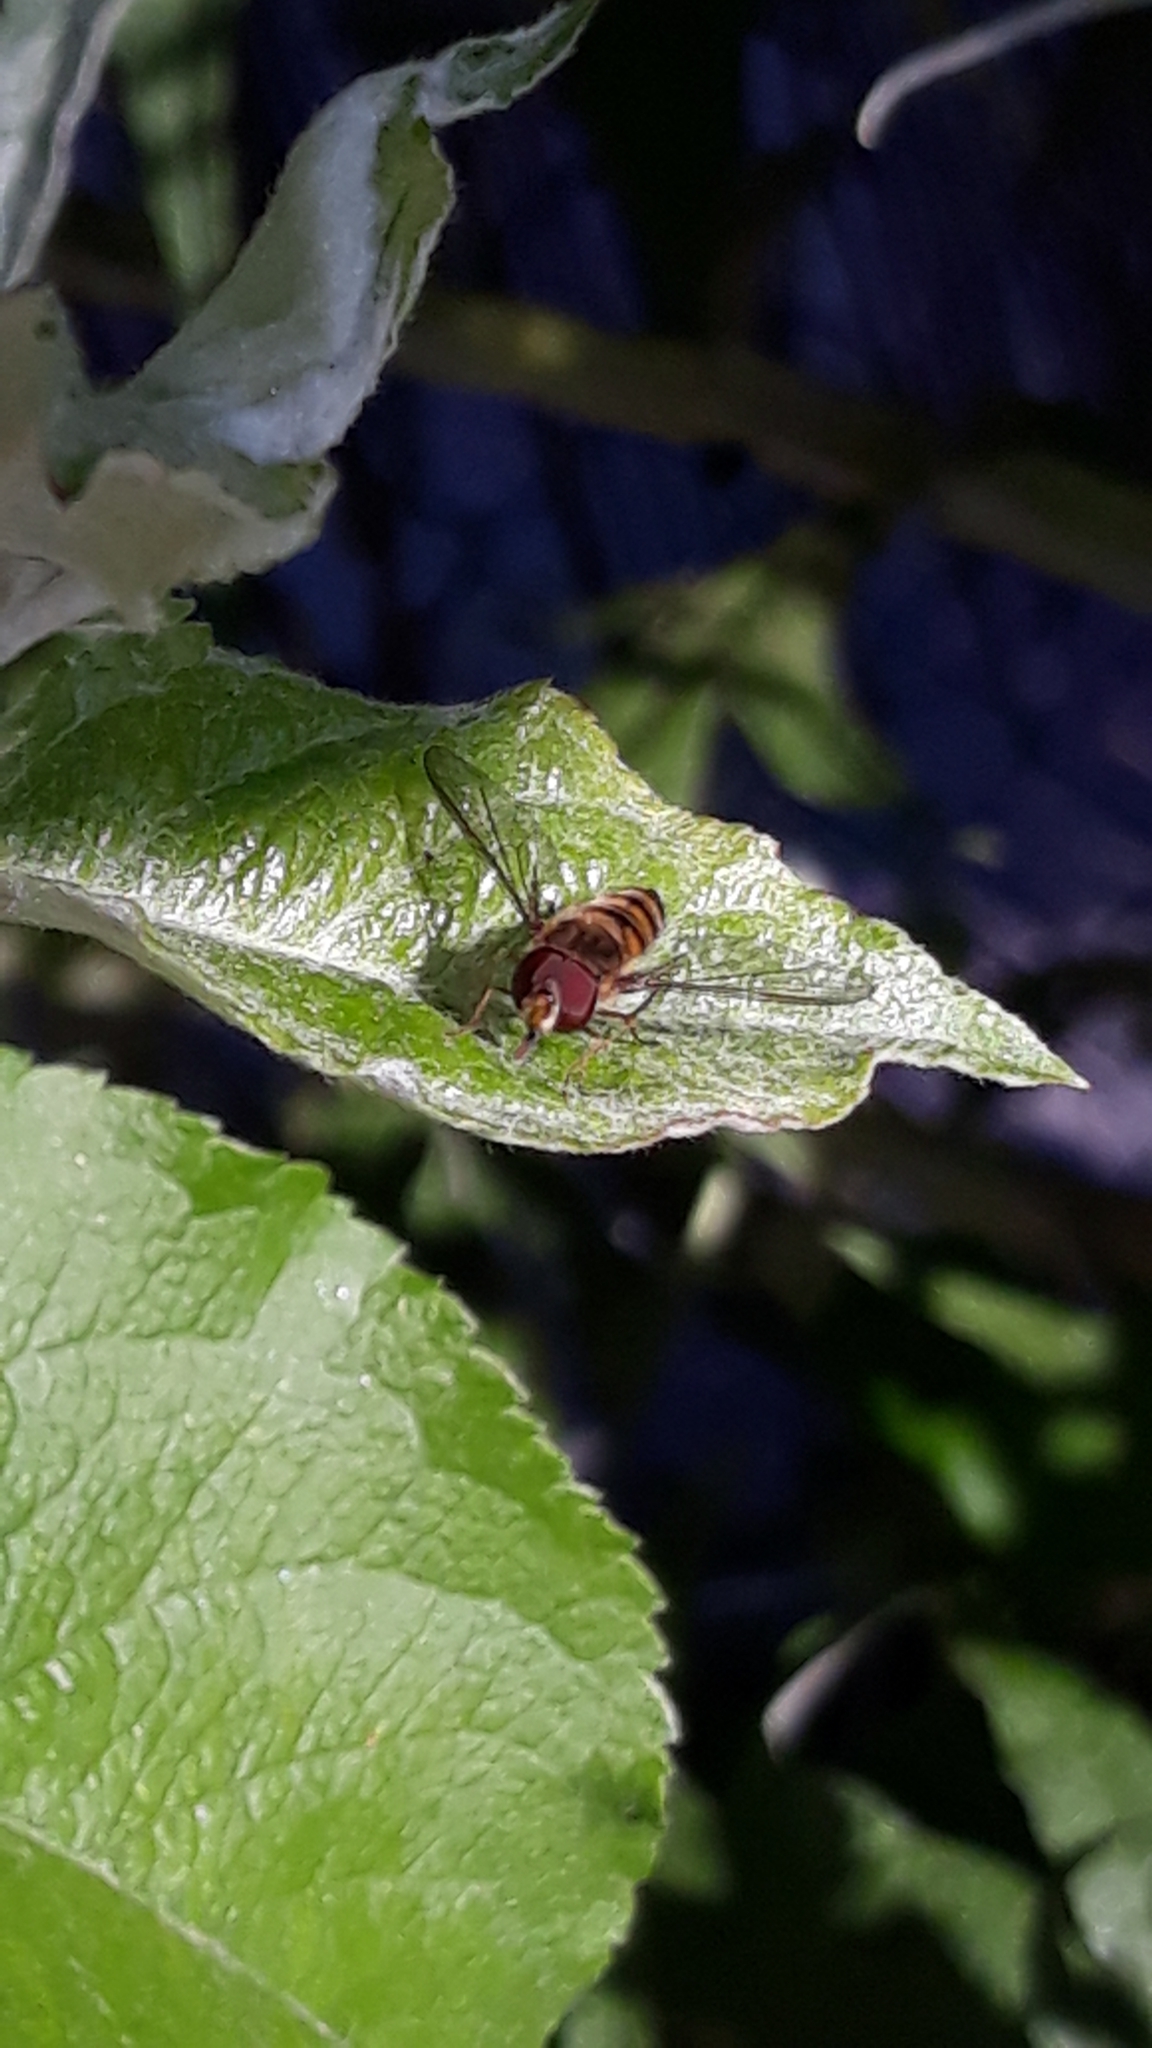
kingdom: Animalia
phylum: Arthropoda
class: Insecta
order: Diptera
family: Syrphidae
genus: Episyrphus
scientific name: Episyrphus balteatus
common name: Marmalade hoverfly
